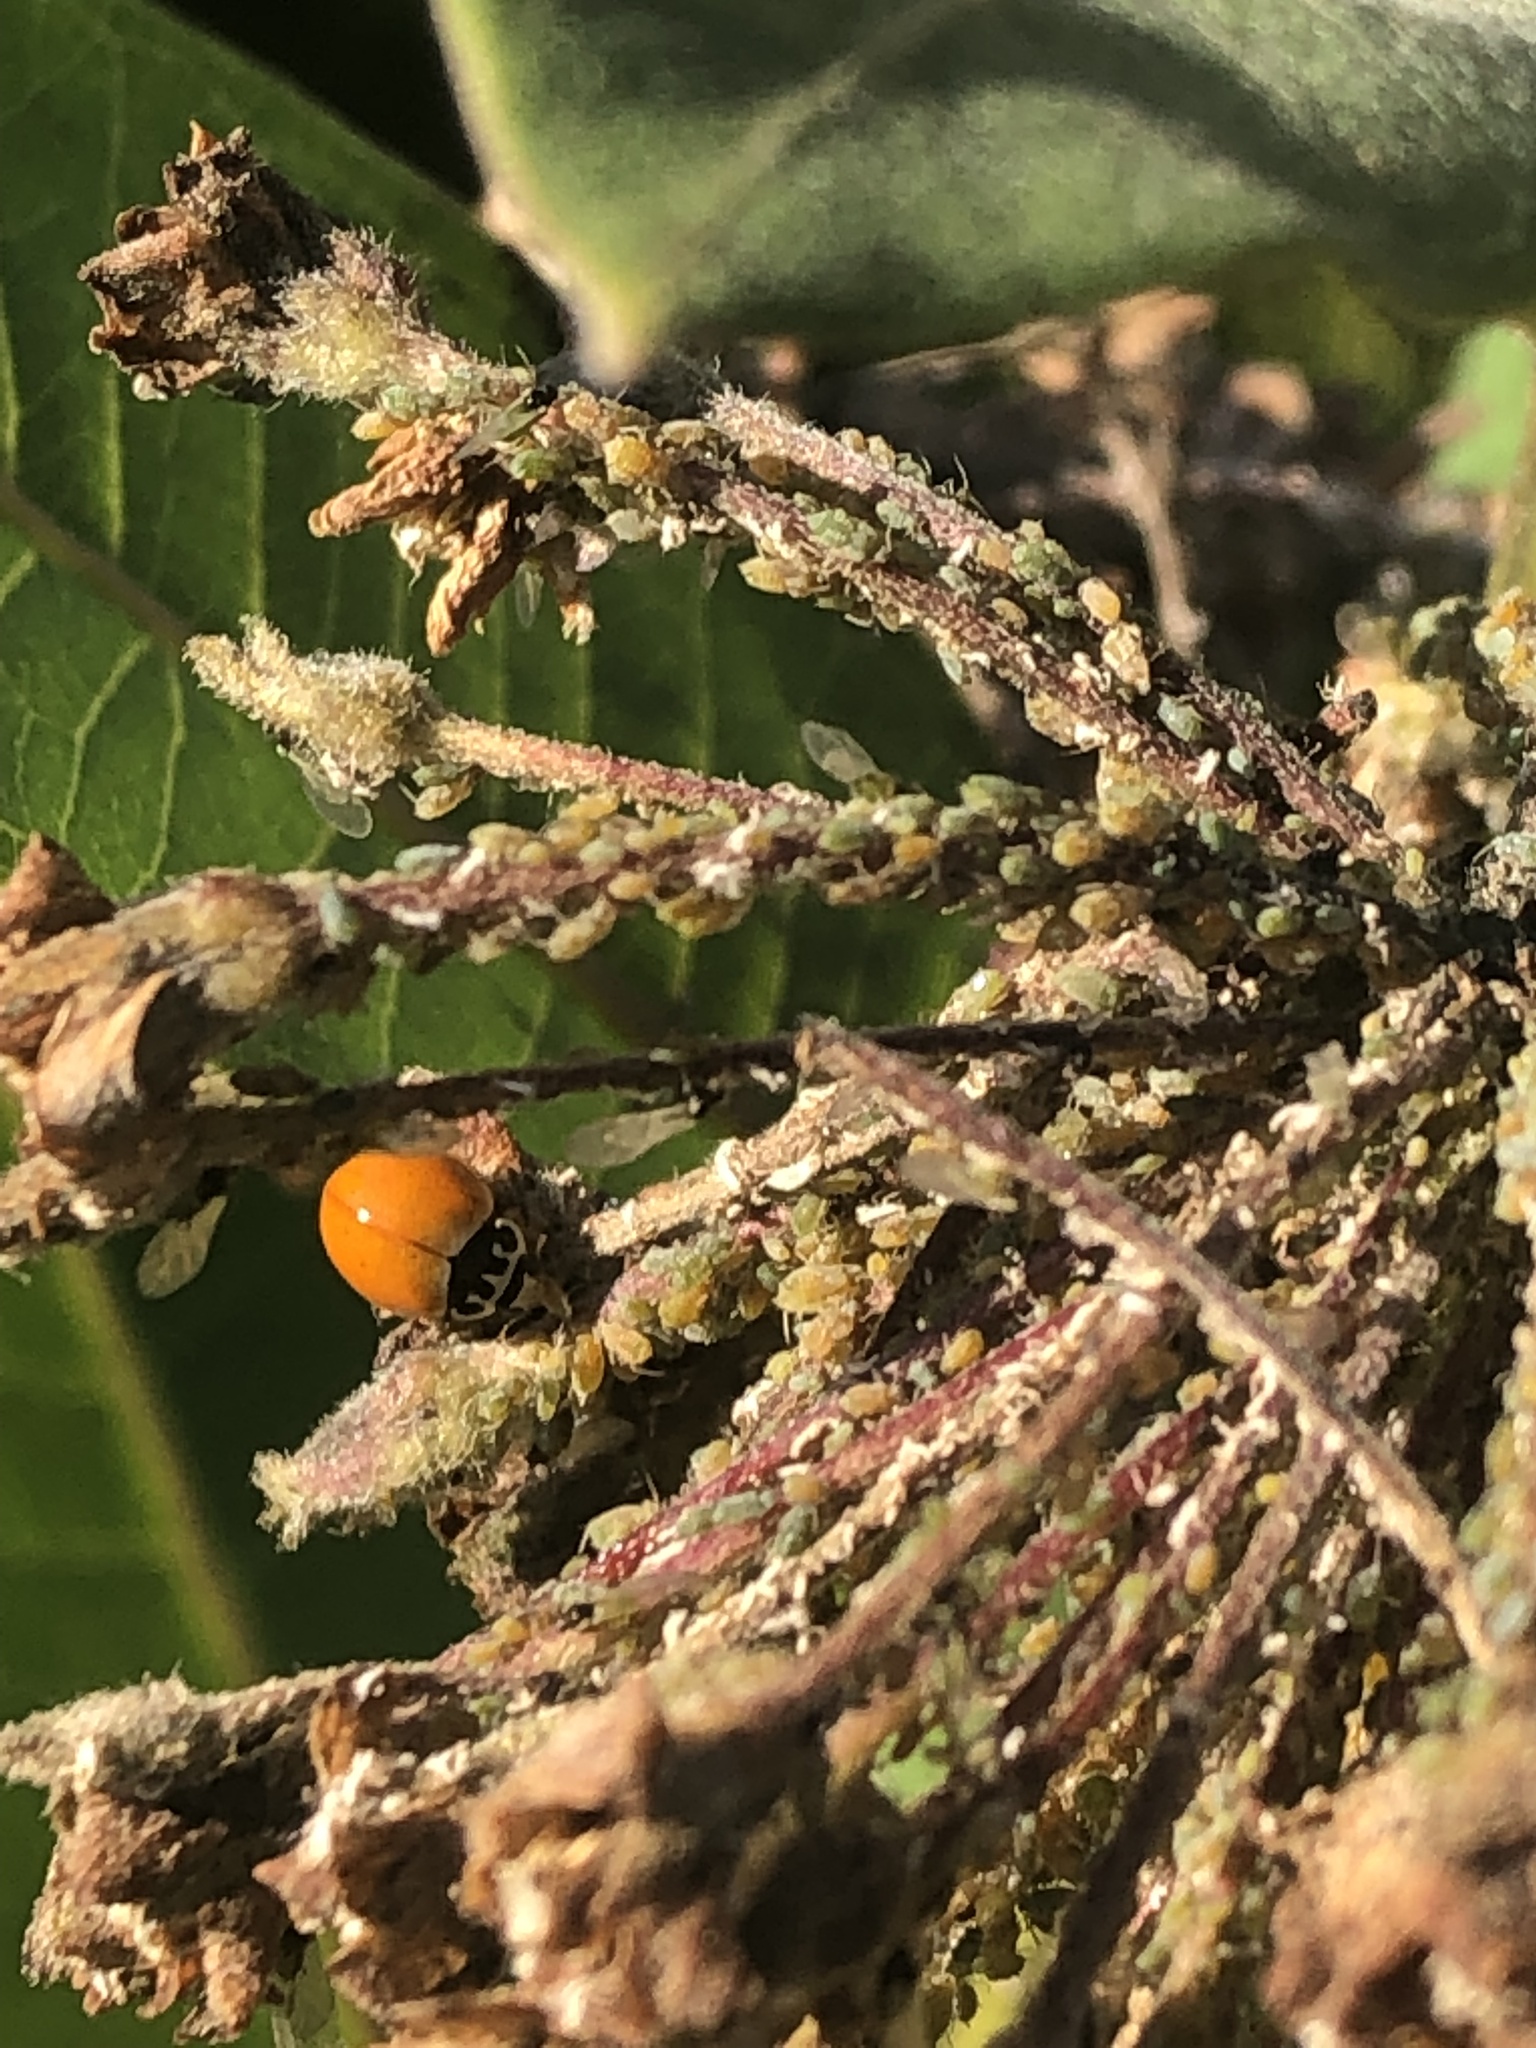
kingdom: Animalia
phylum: Arthropoda
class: Insecta
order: Coleoptera
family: Coccinellidae
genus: Cycloneda
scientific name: Cycloneda munda
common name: Polished lady beetle
